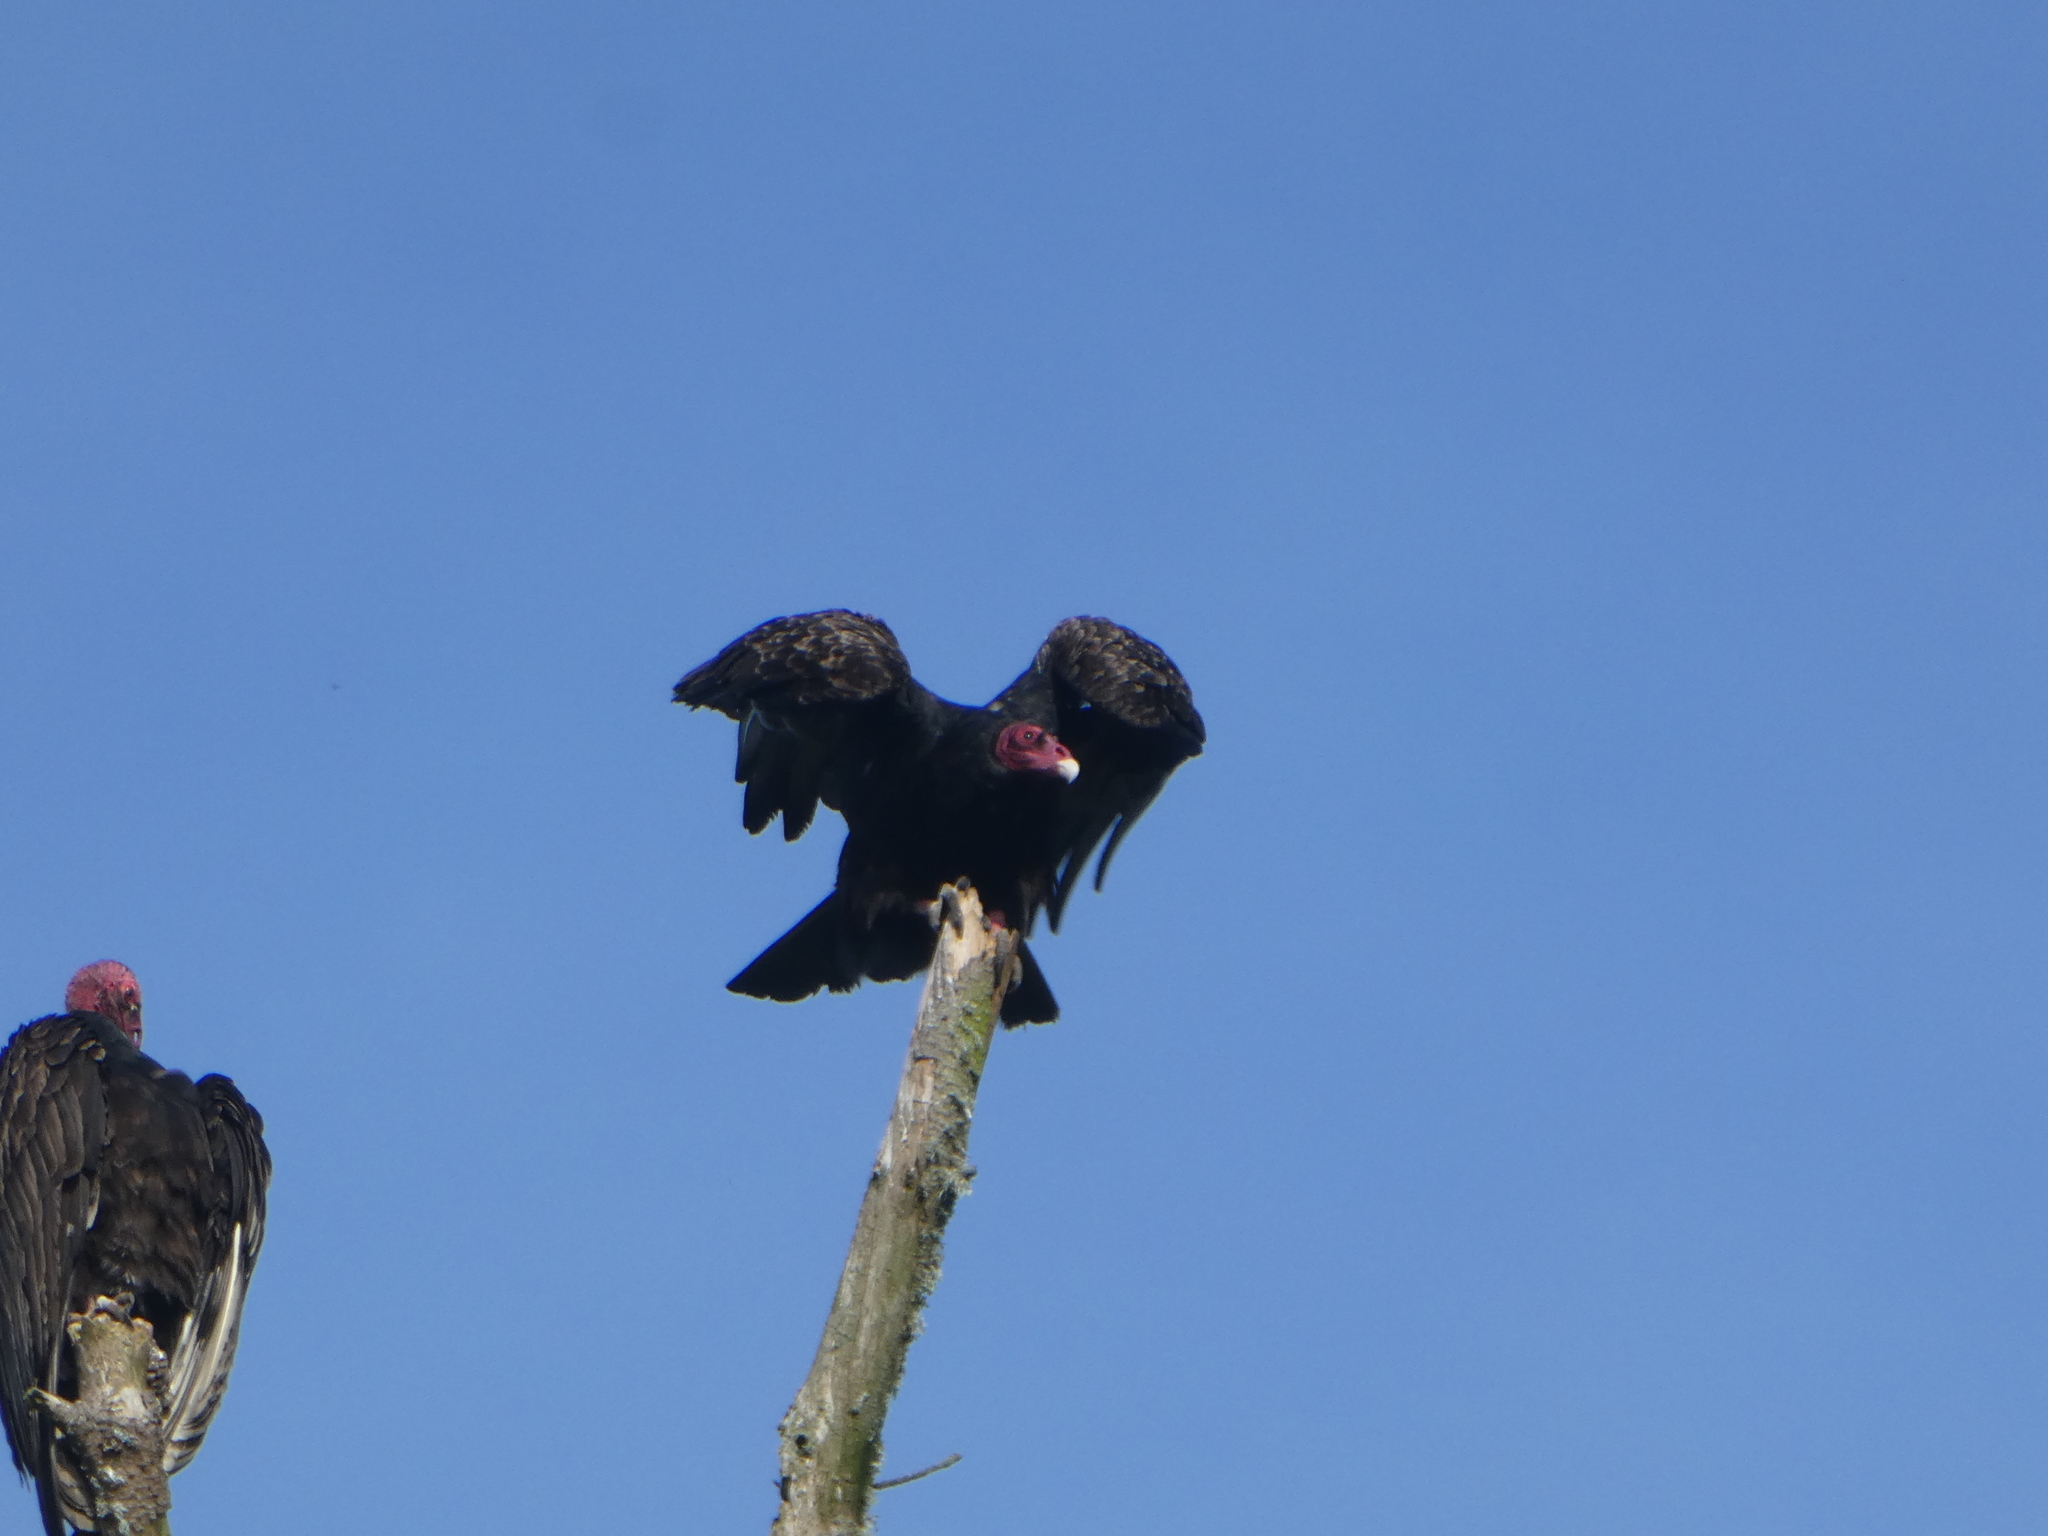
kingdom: Animalia
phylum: Chordata
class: Aves
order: Accipitriformes
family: Cathartidae
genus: Cathartes
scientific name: Cathartes aura
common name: Turkey vulture
